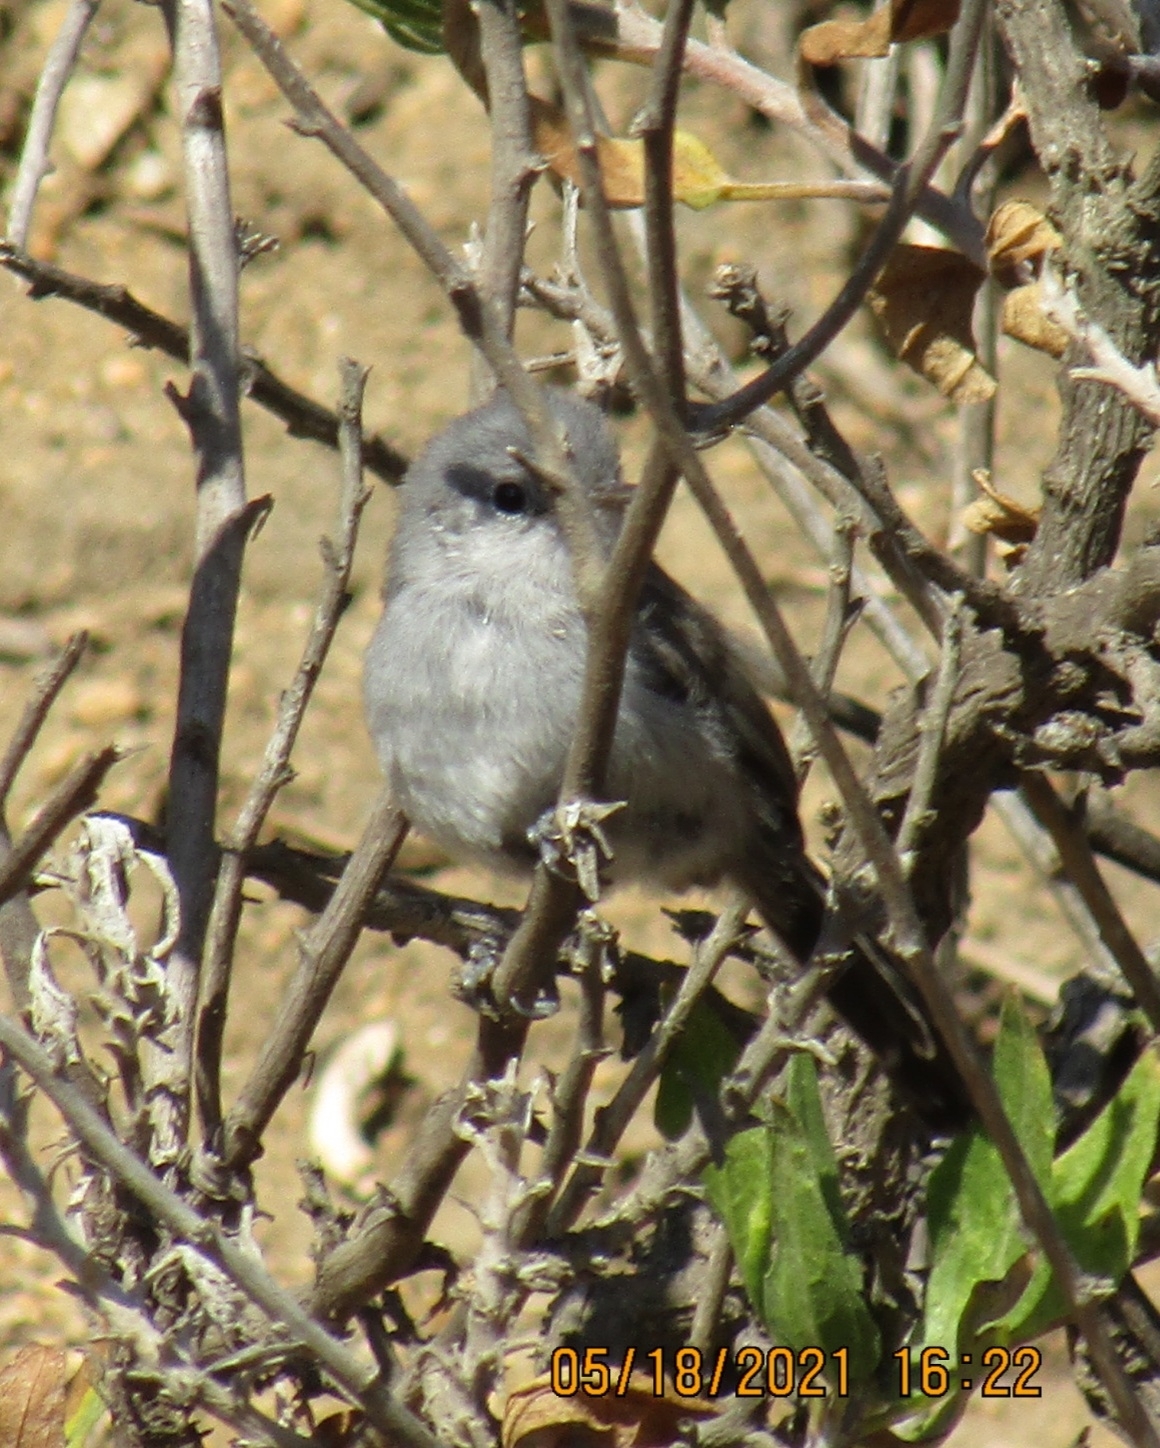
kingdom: Animalia
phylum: Chordata
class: Aves
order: Passeriformes
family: Polioptilidae
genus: Polioptila
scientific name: Polioptila californica
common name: California gnatcatcher
